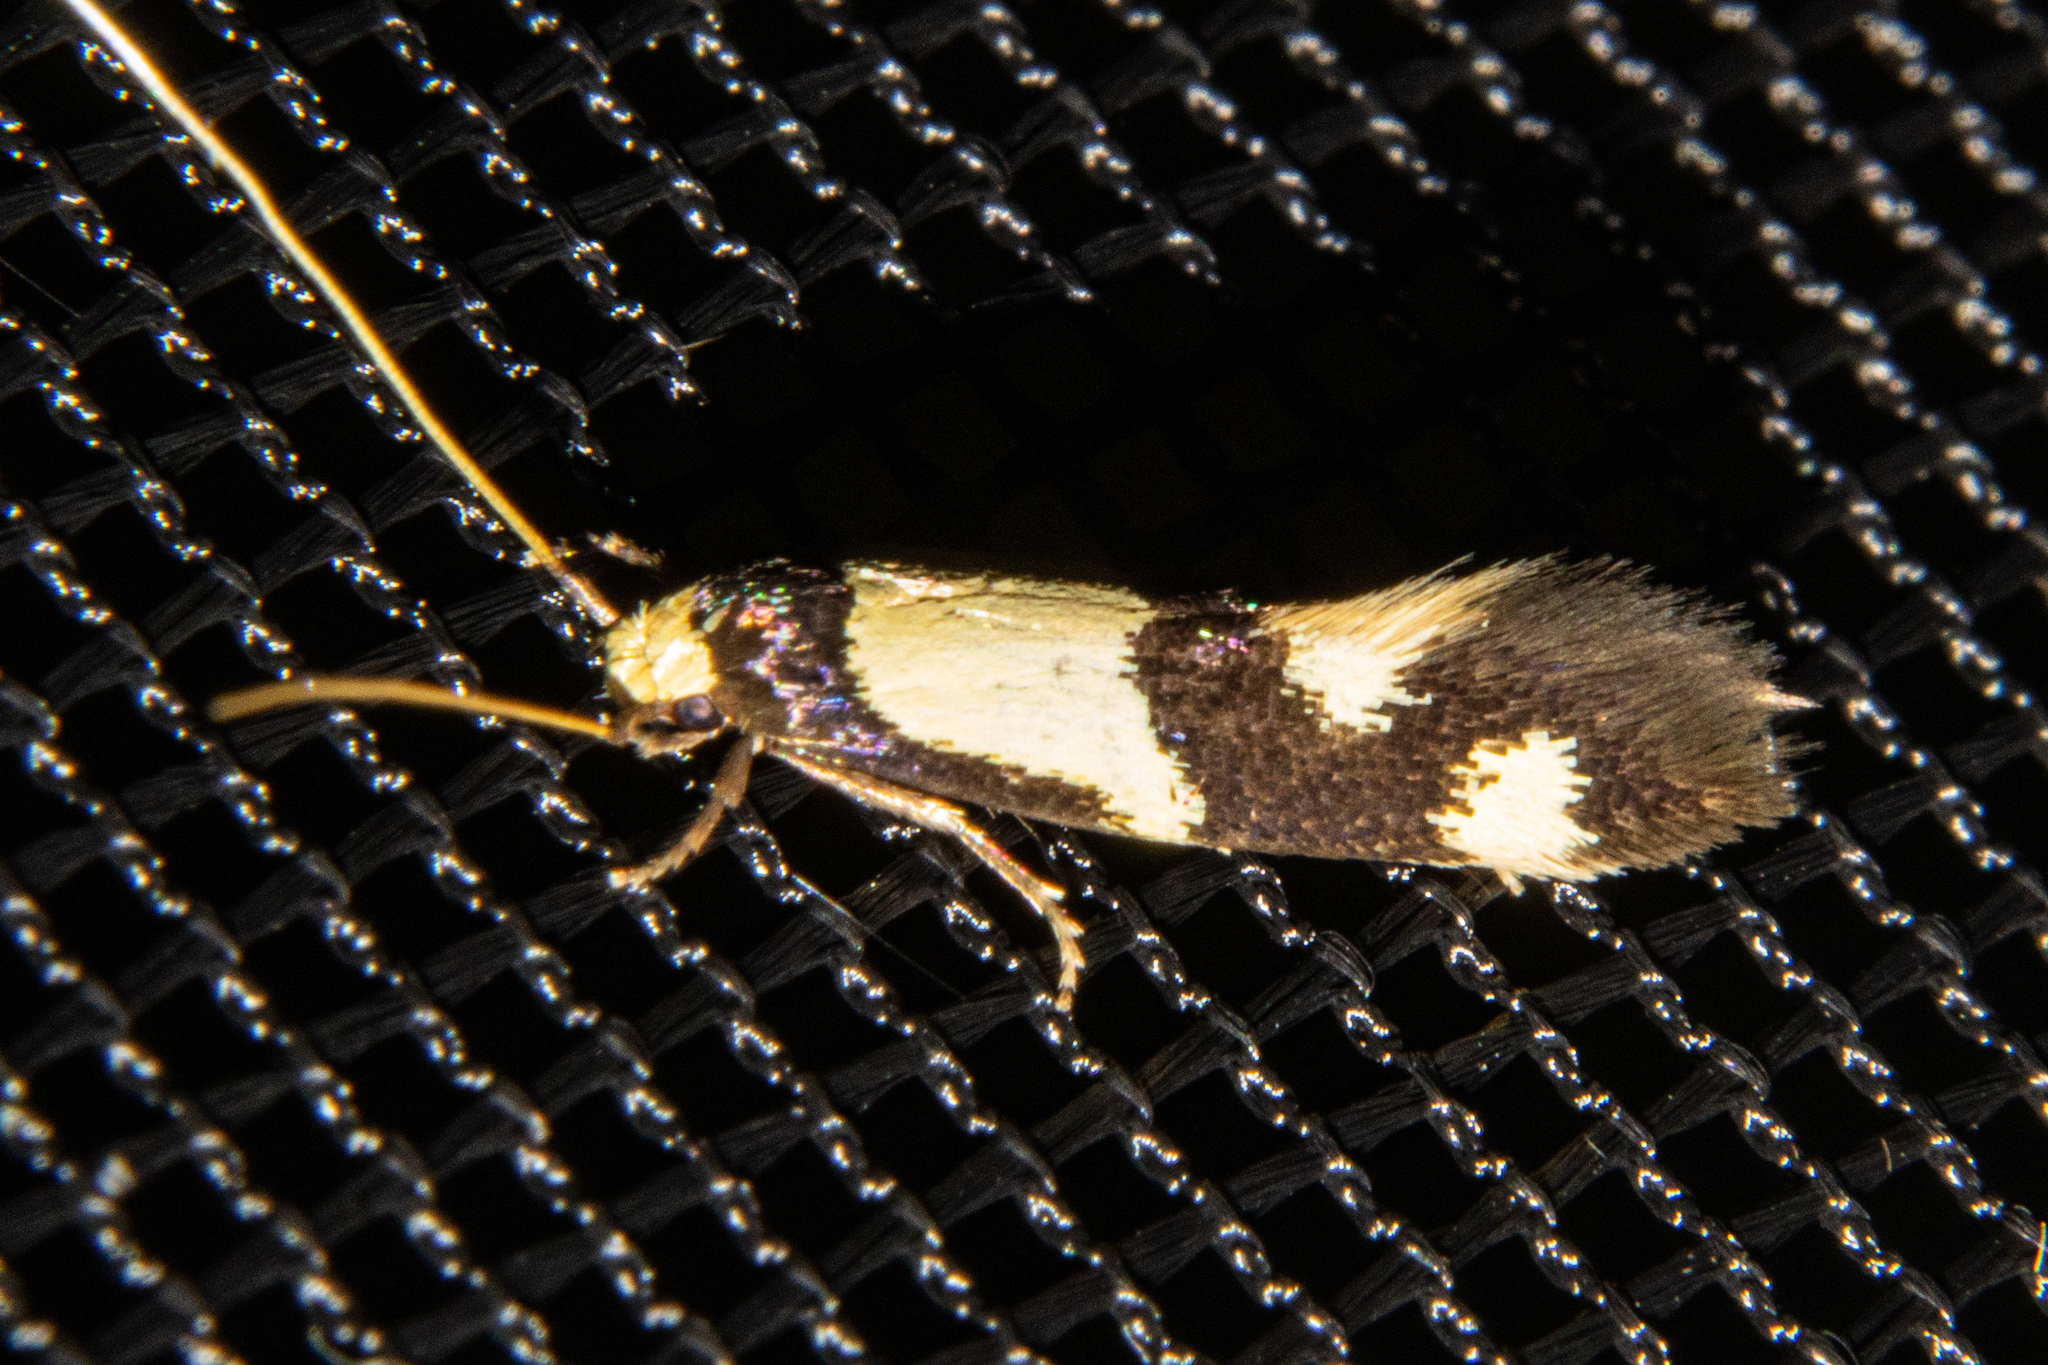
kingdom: Animalia
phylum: Arthropoda
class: Insecta
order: Lepidoptera
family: Tineidae
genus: Opogona
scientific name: Opogona comptella
